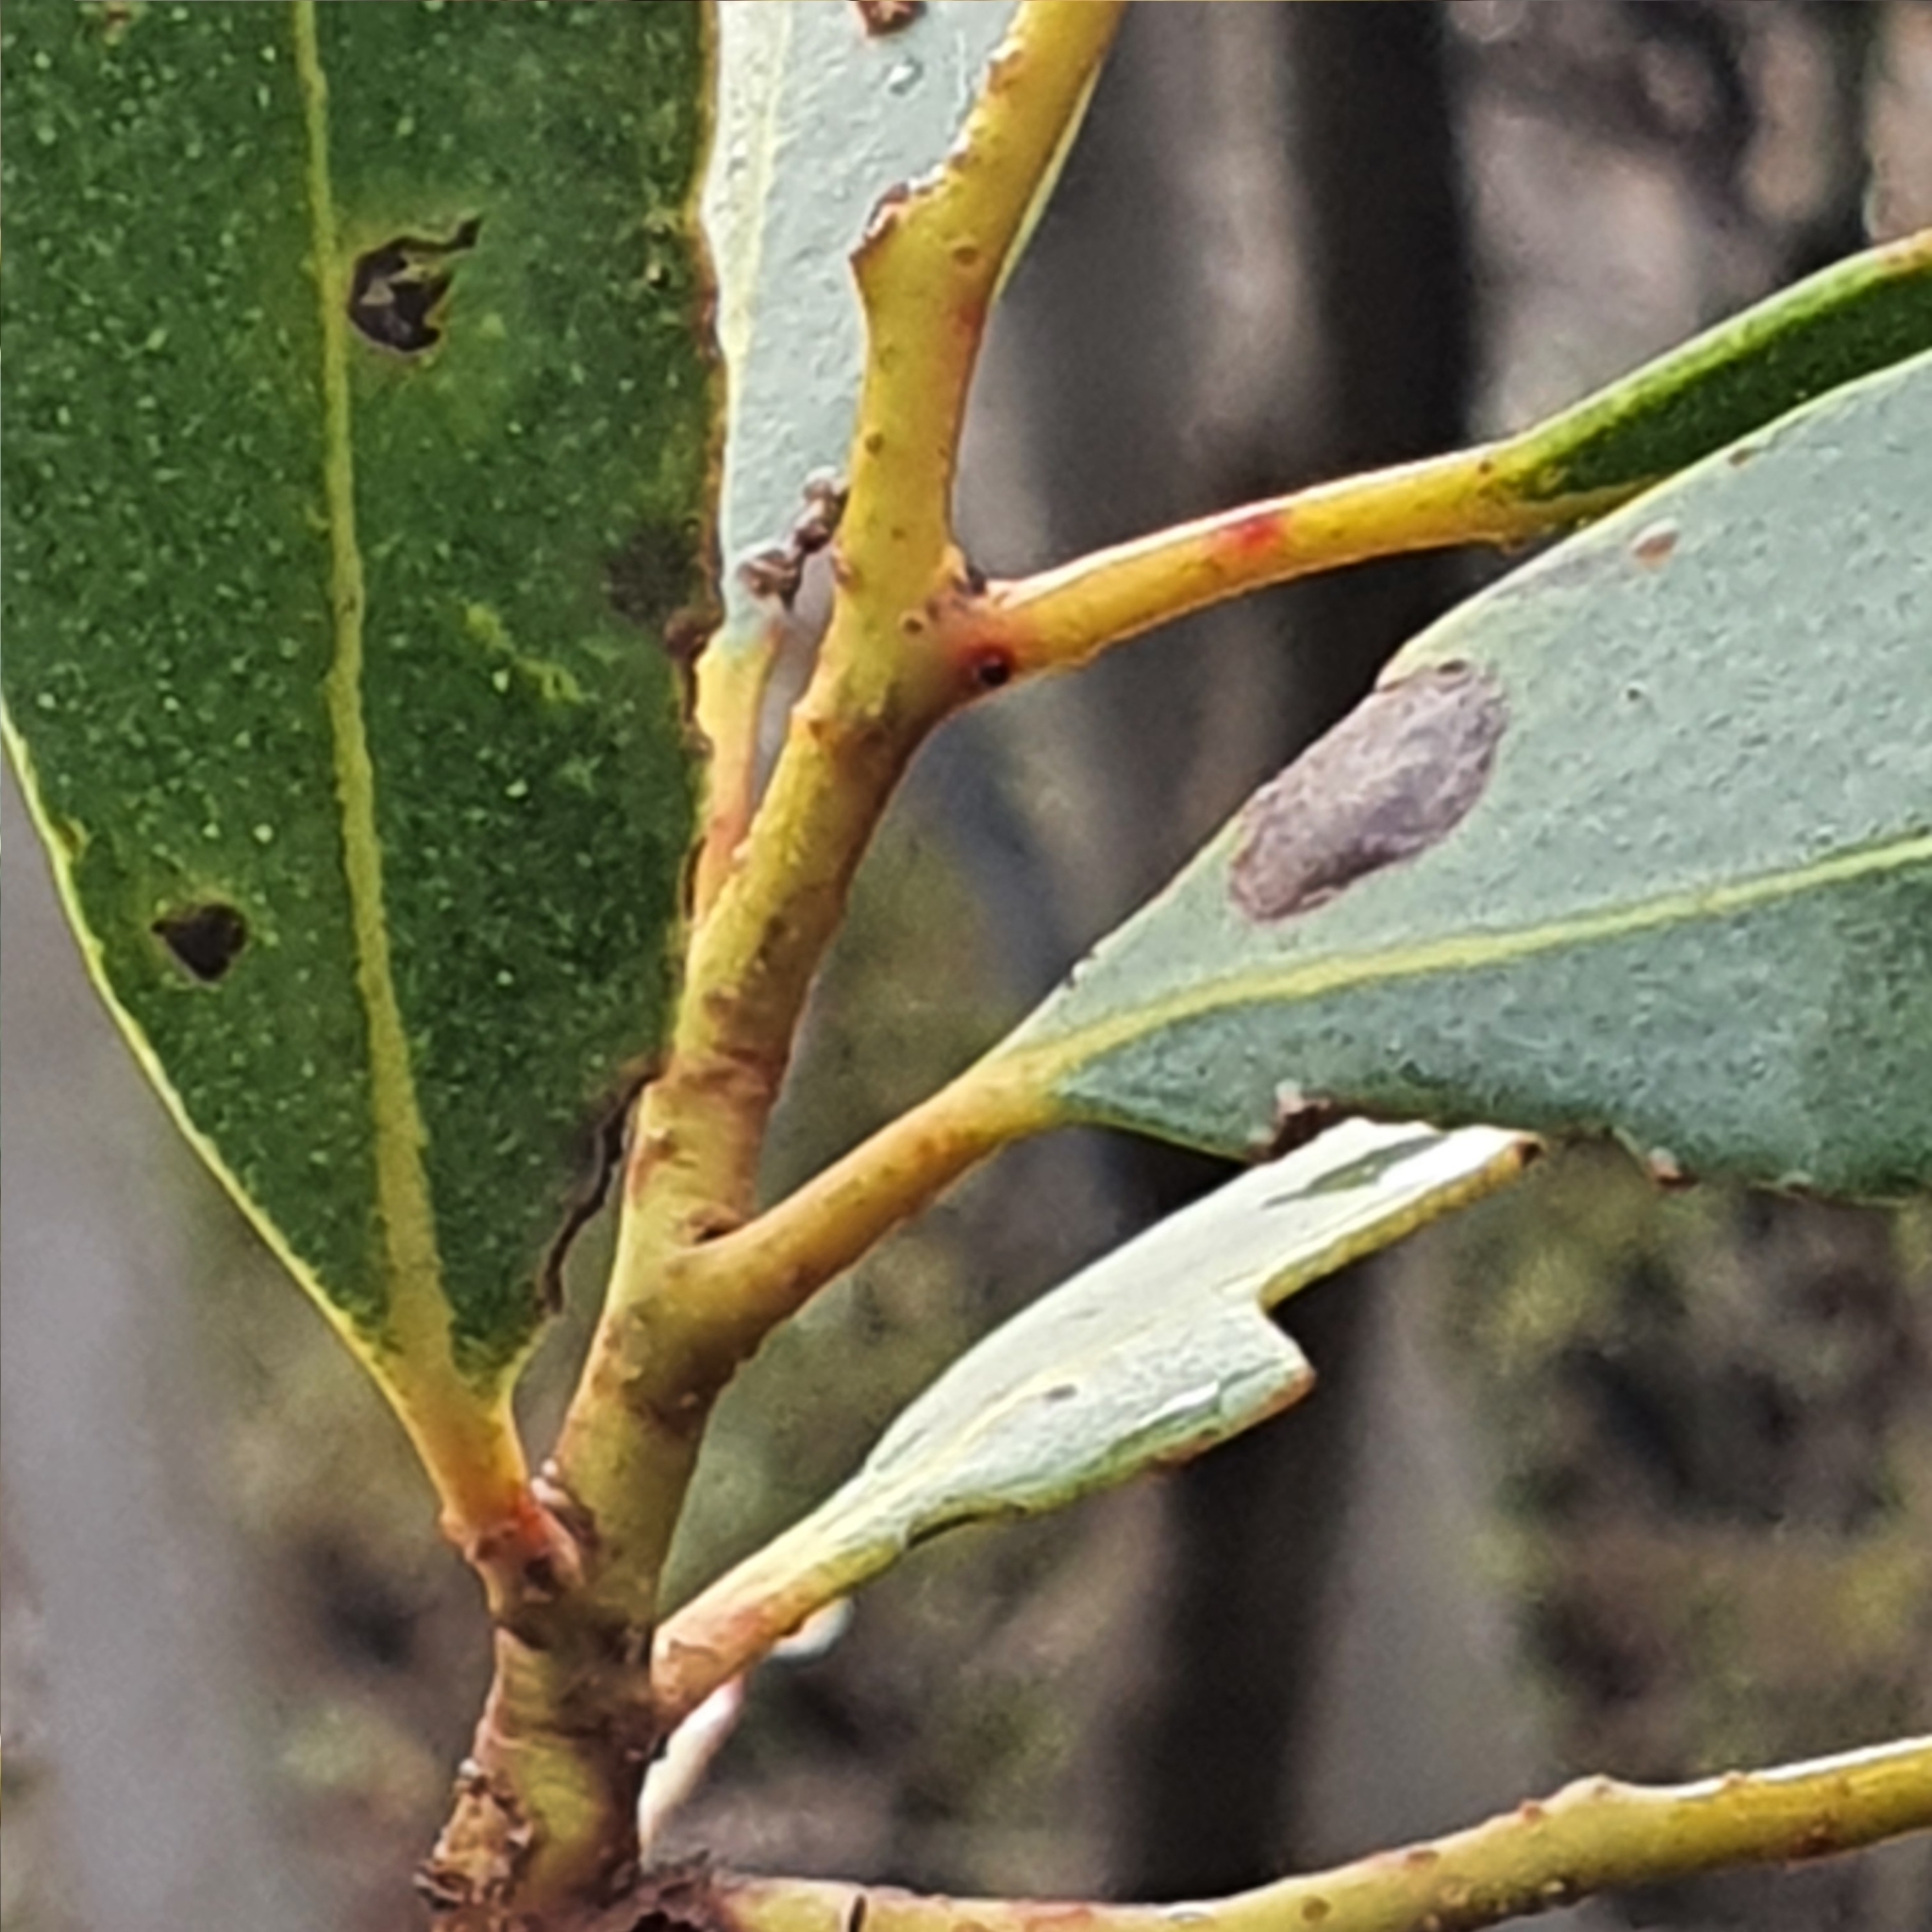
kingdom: Plantae
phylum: Tracheophyta
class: Magnoliopsida
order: Myrtales
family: Myrtaceae
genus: Eucalyptus
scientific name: Eucalyptus burgessiana
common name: Falconbridge mallee-ash
